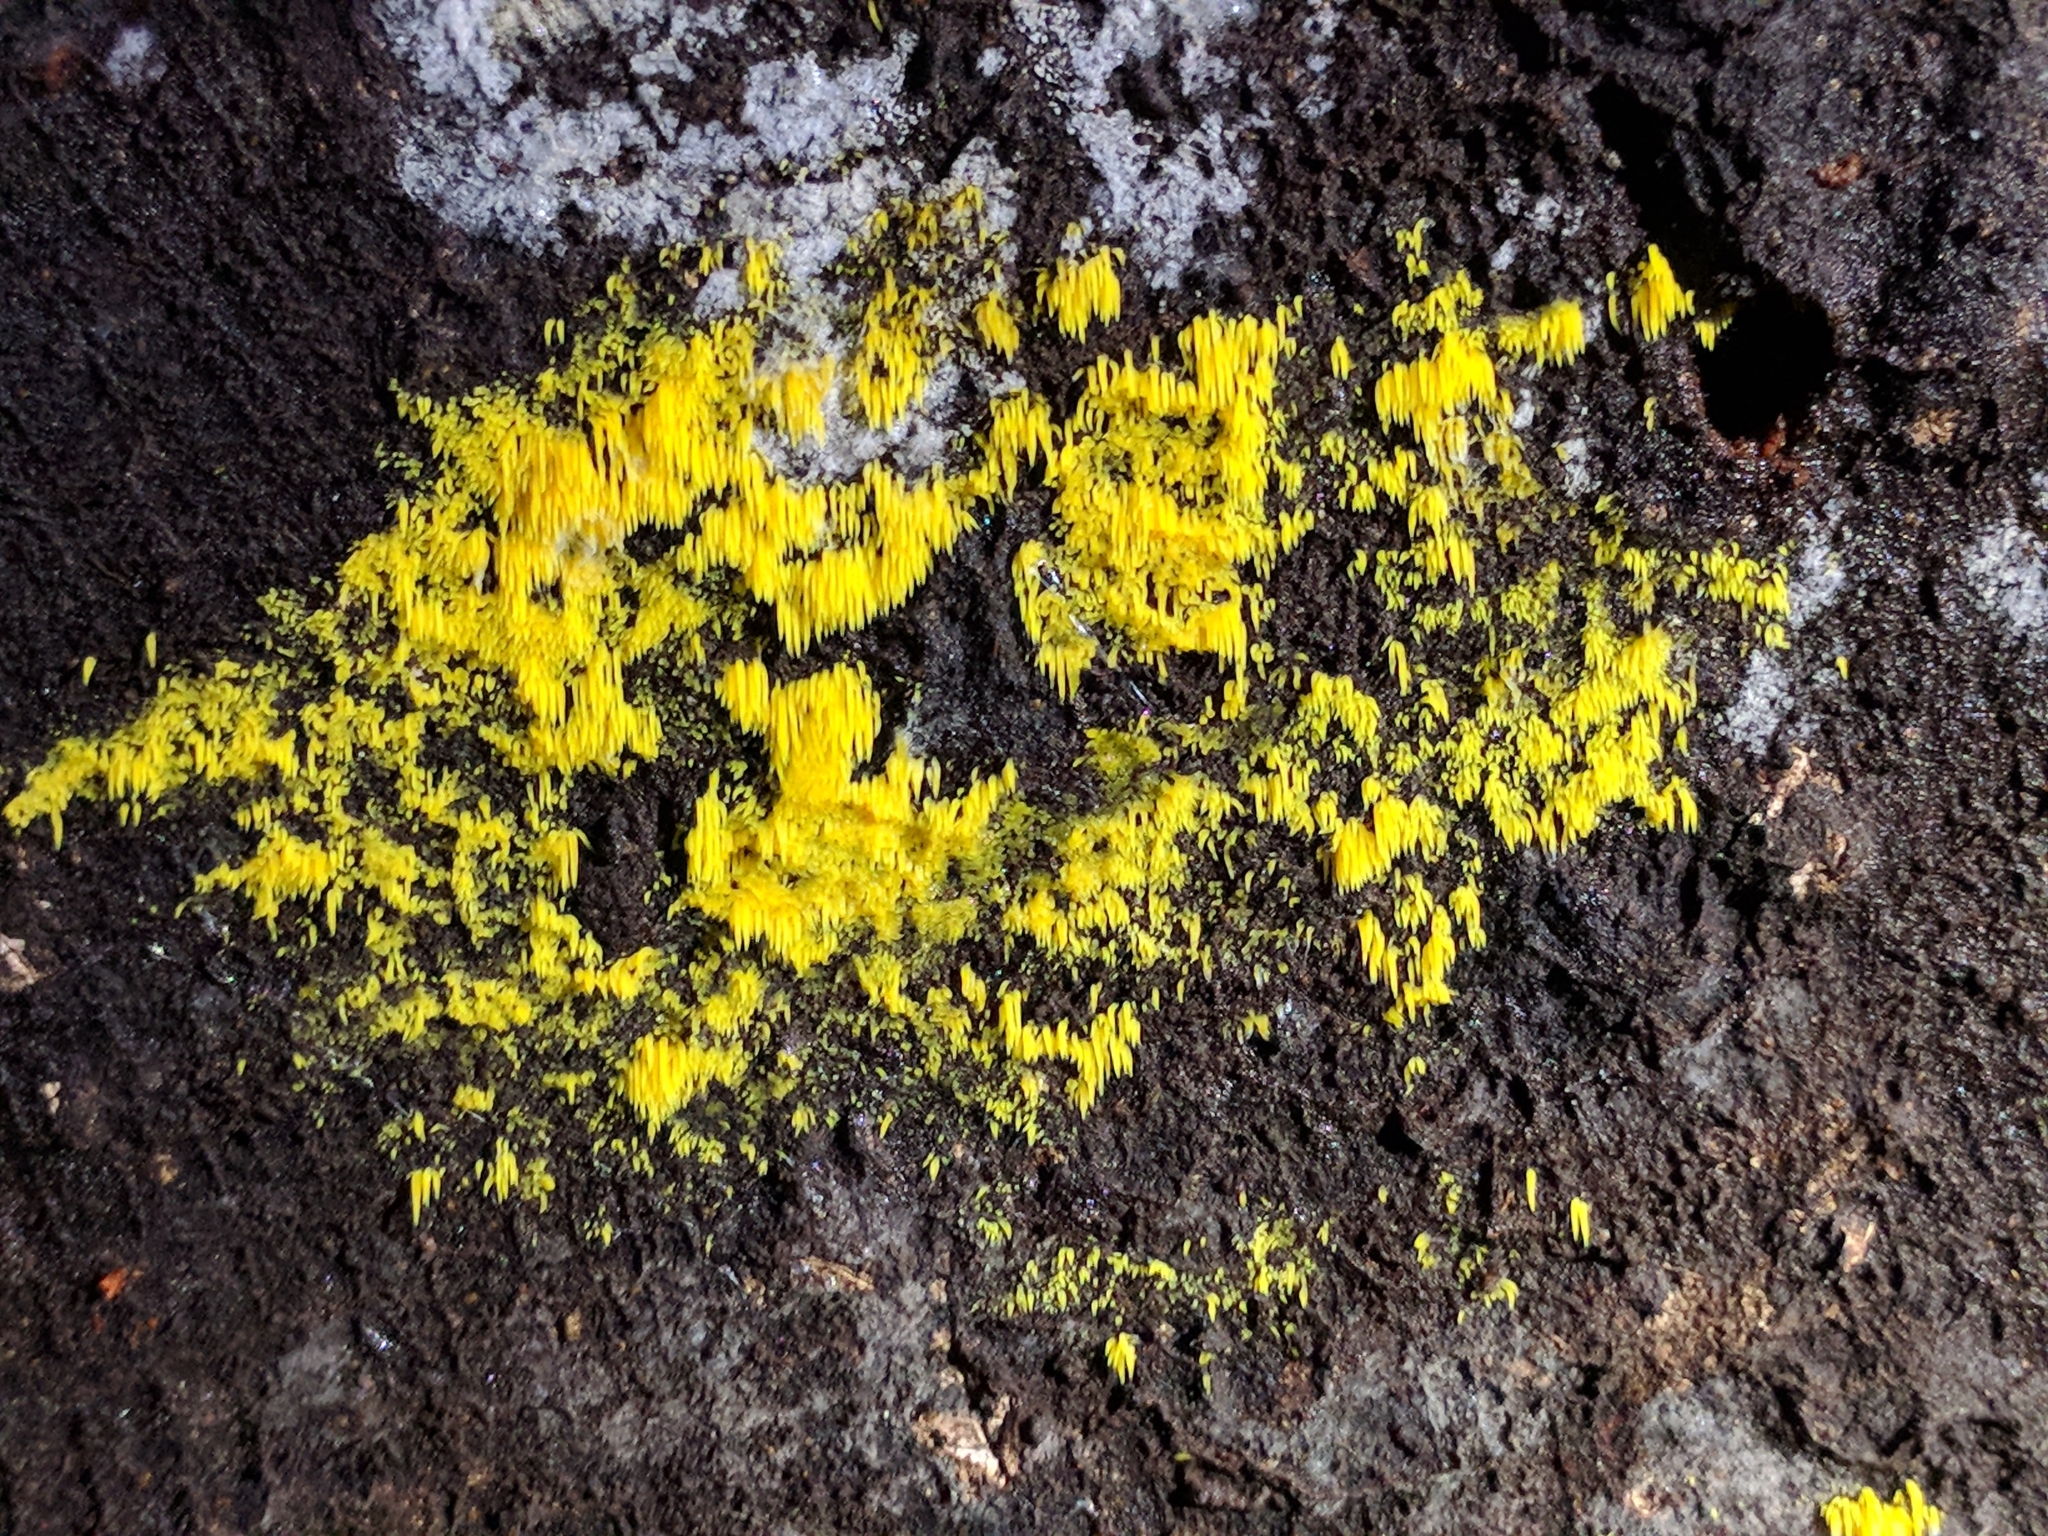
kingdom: Fungi
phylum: Basidiomycota
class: Agaricomycetes
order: Agaricales
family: Clavariaceae
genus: Mucronella
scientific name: Mucronella flava
